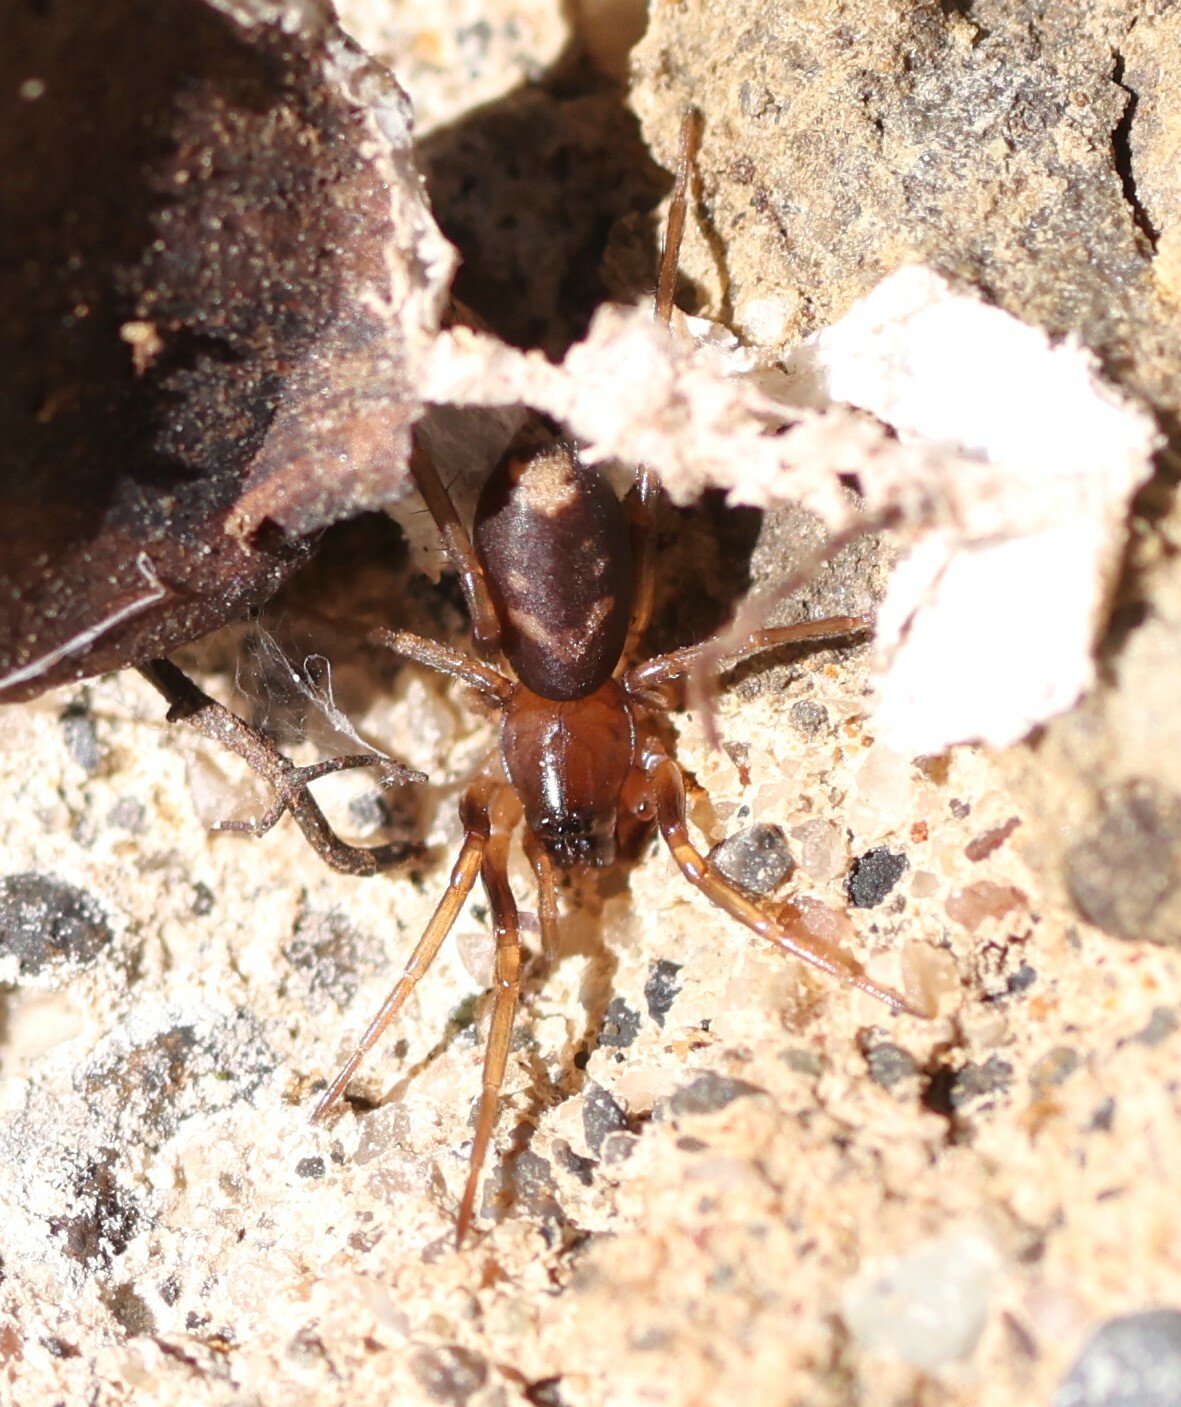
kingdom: Animalia
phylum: Arthropoda
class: Arachnida
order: Araneae
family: Corinnidae
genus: Falconina
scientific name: Falconina gracilis
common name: Antmimic spider
